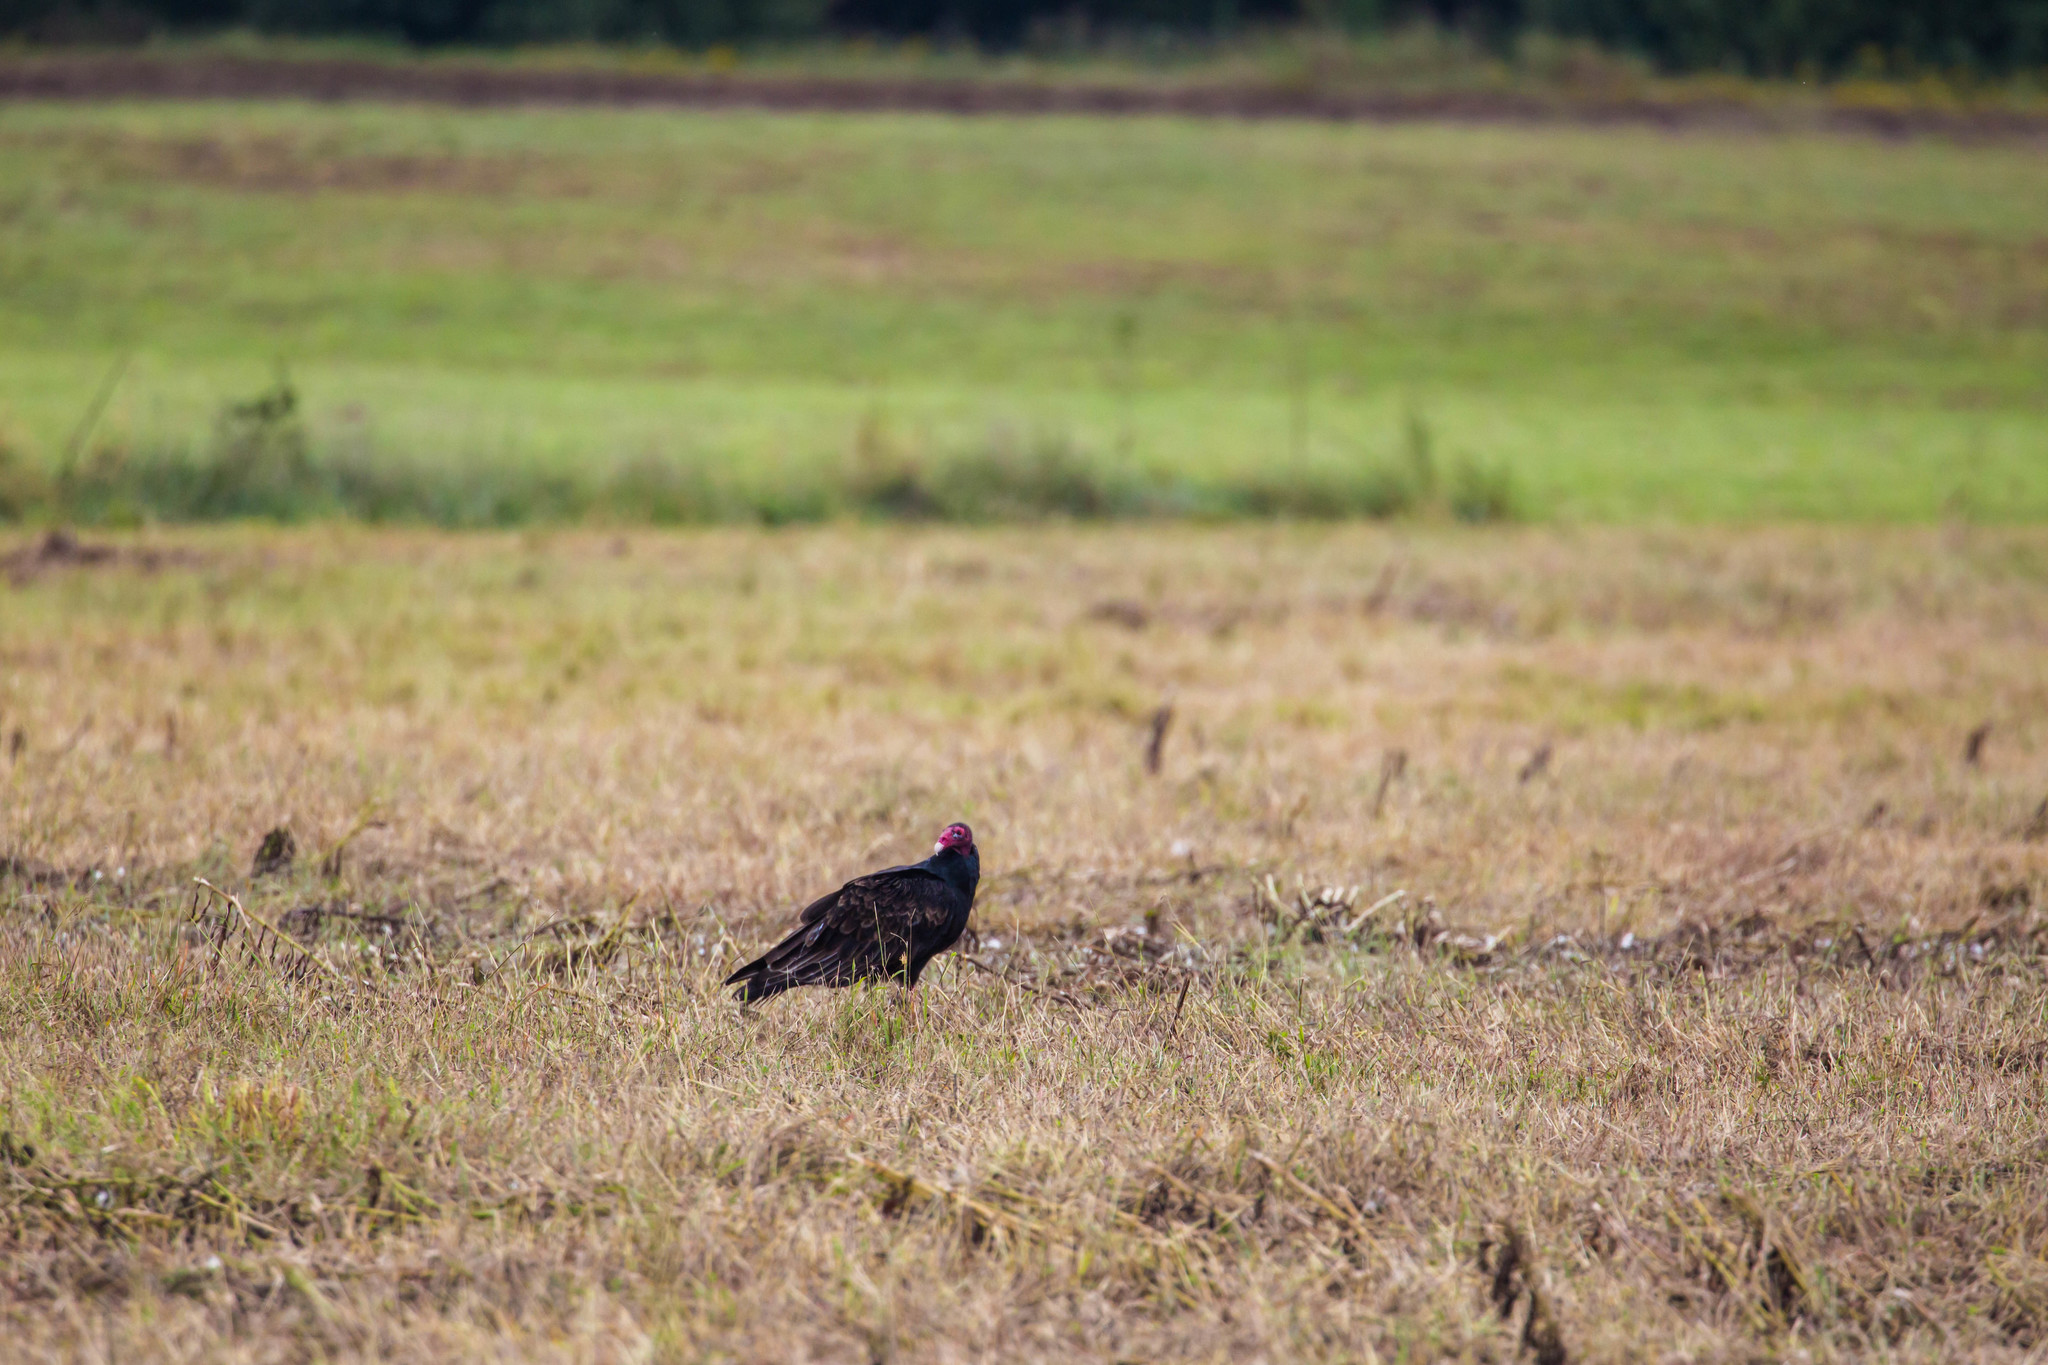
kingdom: Animalia
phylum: Chordata
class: Aves
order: Accipitriformes
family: Cathartidae
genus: Cathartes
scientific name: Cathartes aura
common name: Turkey vulture
